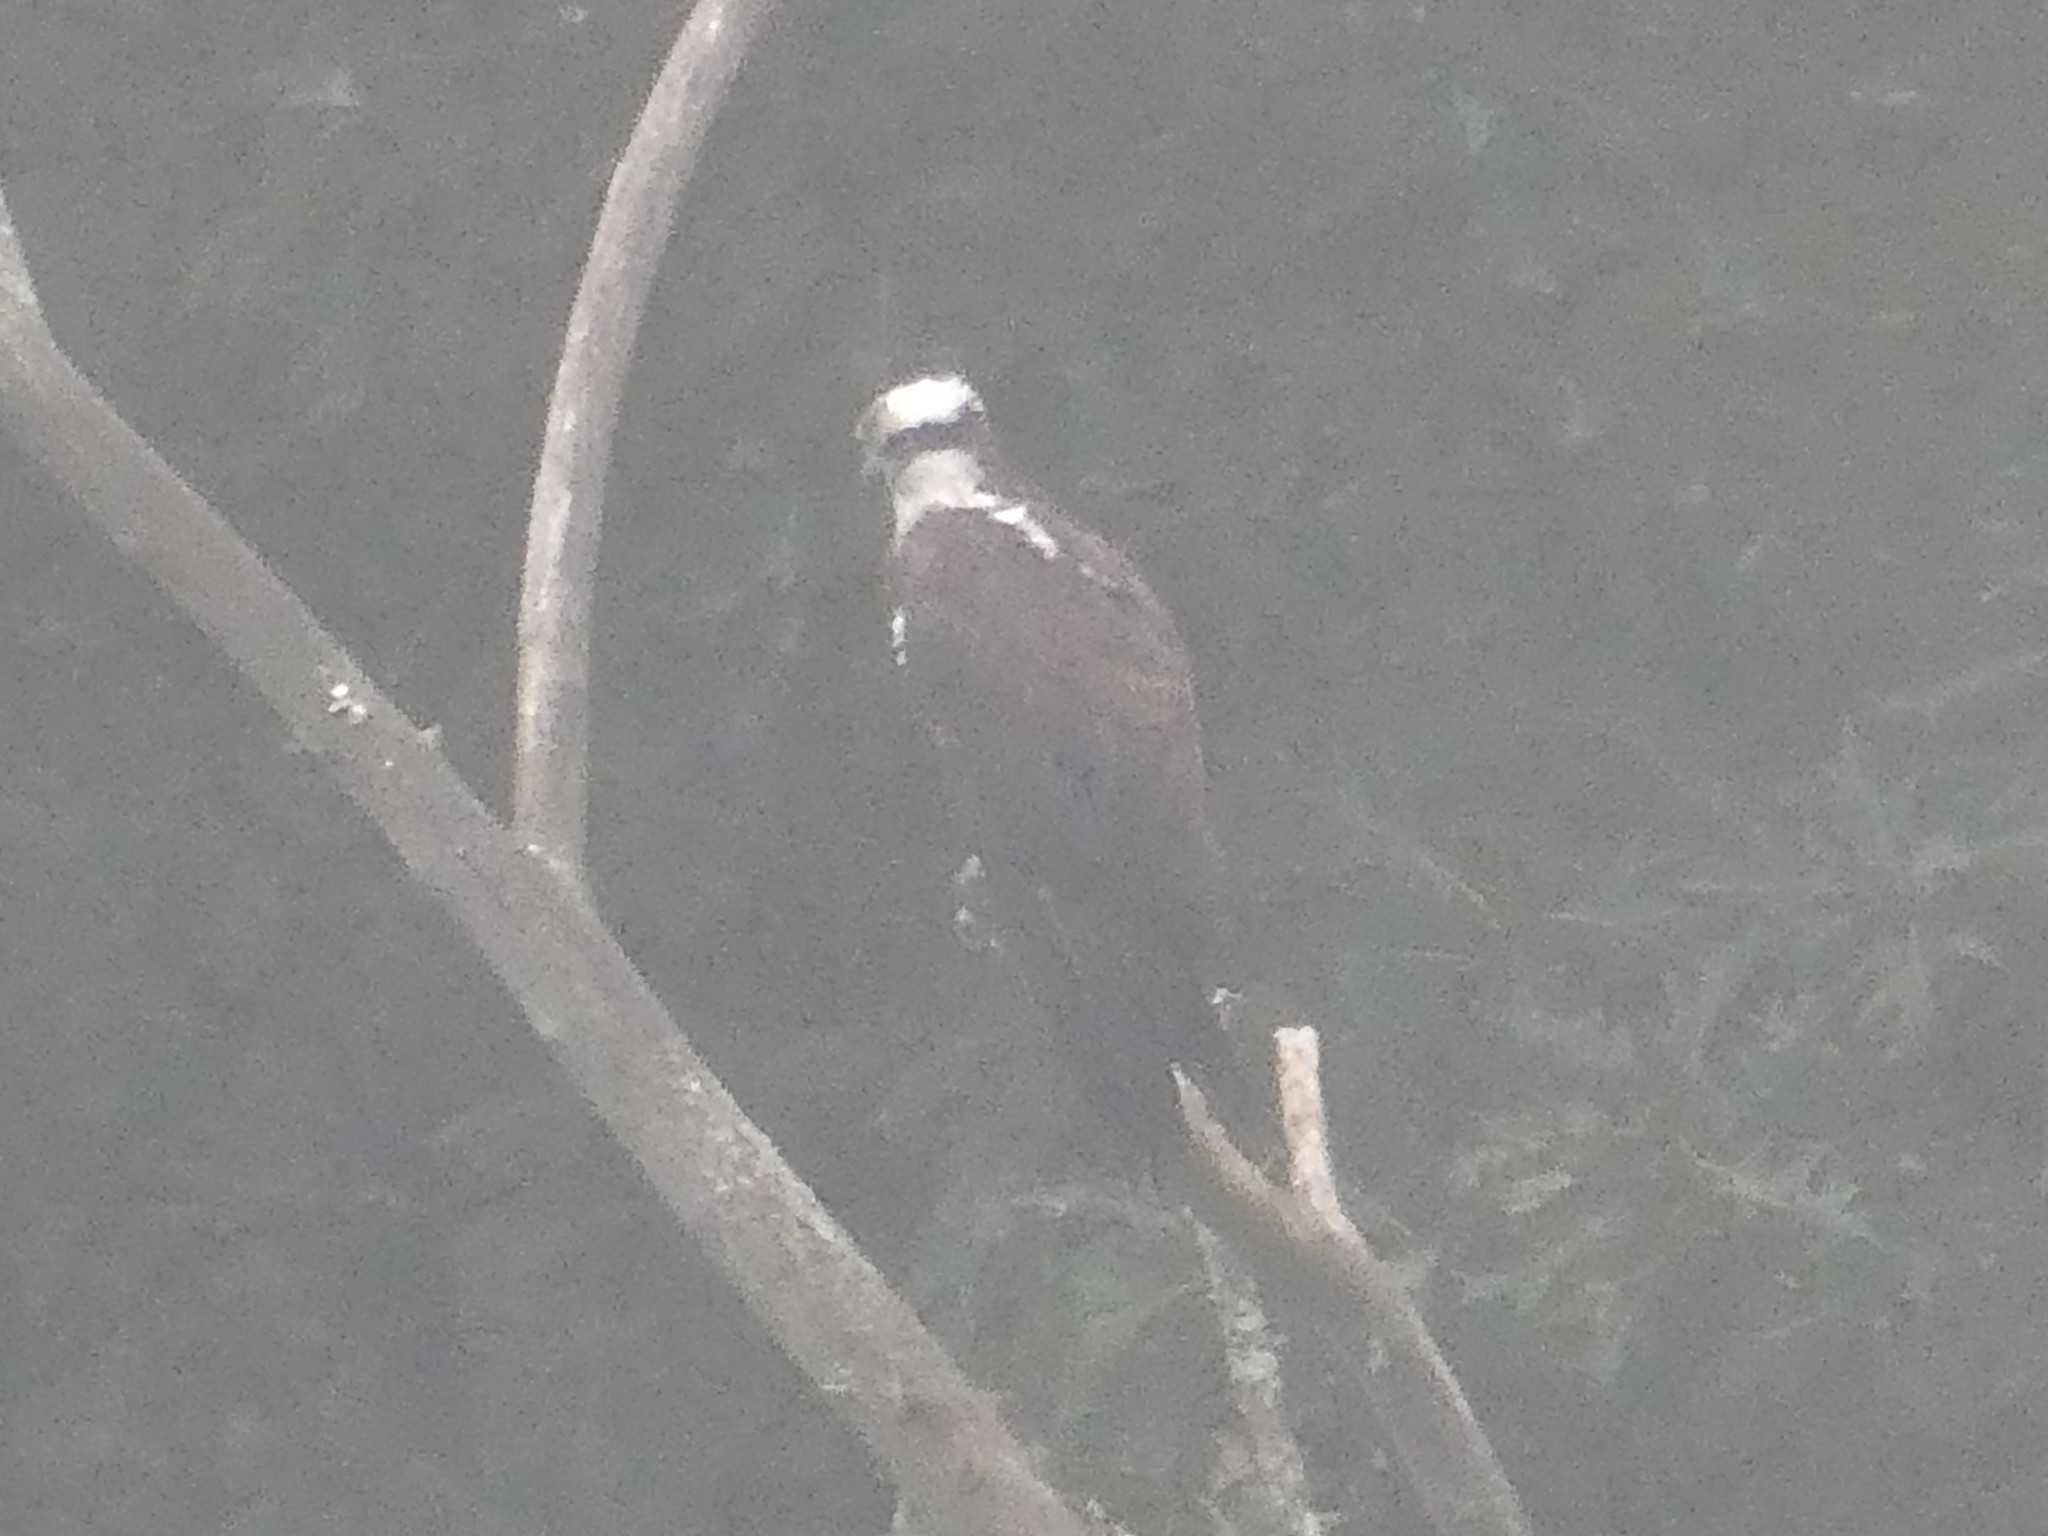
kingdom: Animalia
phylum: Chordata
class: Aves
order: Accipitriformes
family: Pandionidae
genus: Pandion
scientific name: Pandion haliaetus
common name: Osprey
